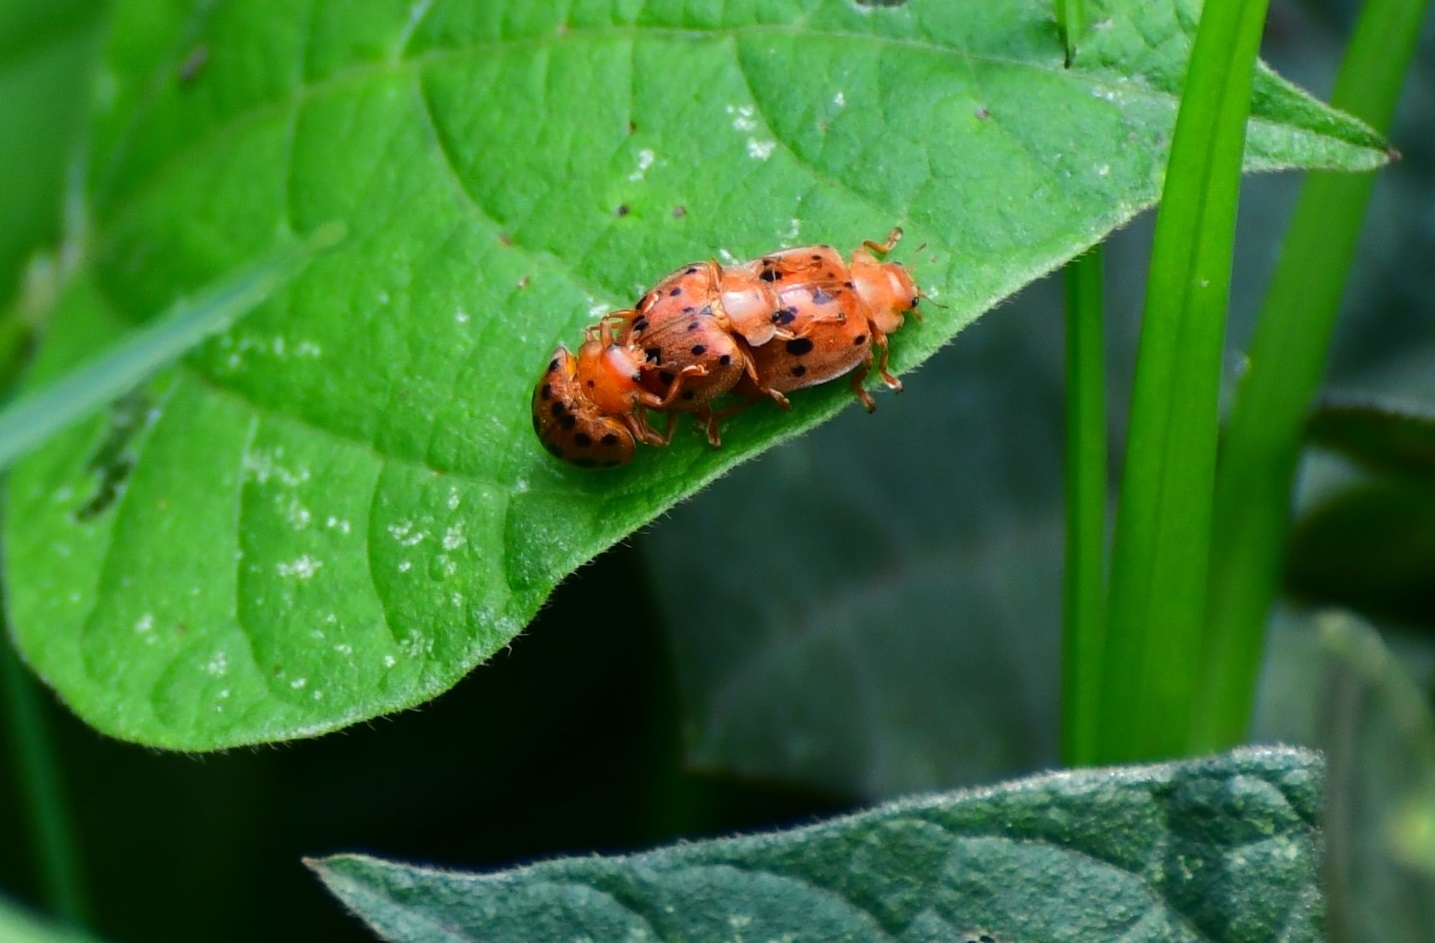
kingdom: Animalia
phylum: Arthropoda
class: Insecta
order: Coleoptera
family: Coccinellidae
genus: Epilachna
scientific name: Epilachna varivestis
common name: Ladybird beetle
